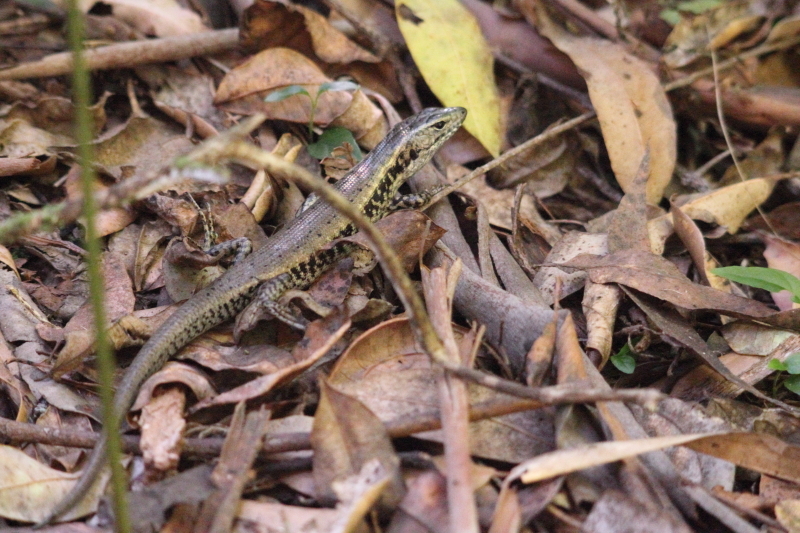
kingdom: Animalia
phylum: Chordata
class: Squamata
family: Scincidae
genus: Eulamprus
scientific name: Eulamprus quoyii
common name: Eastern water skink
